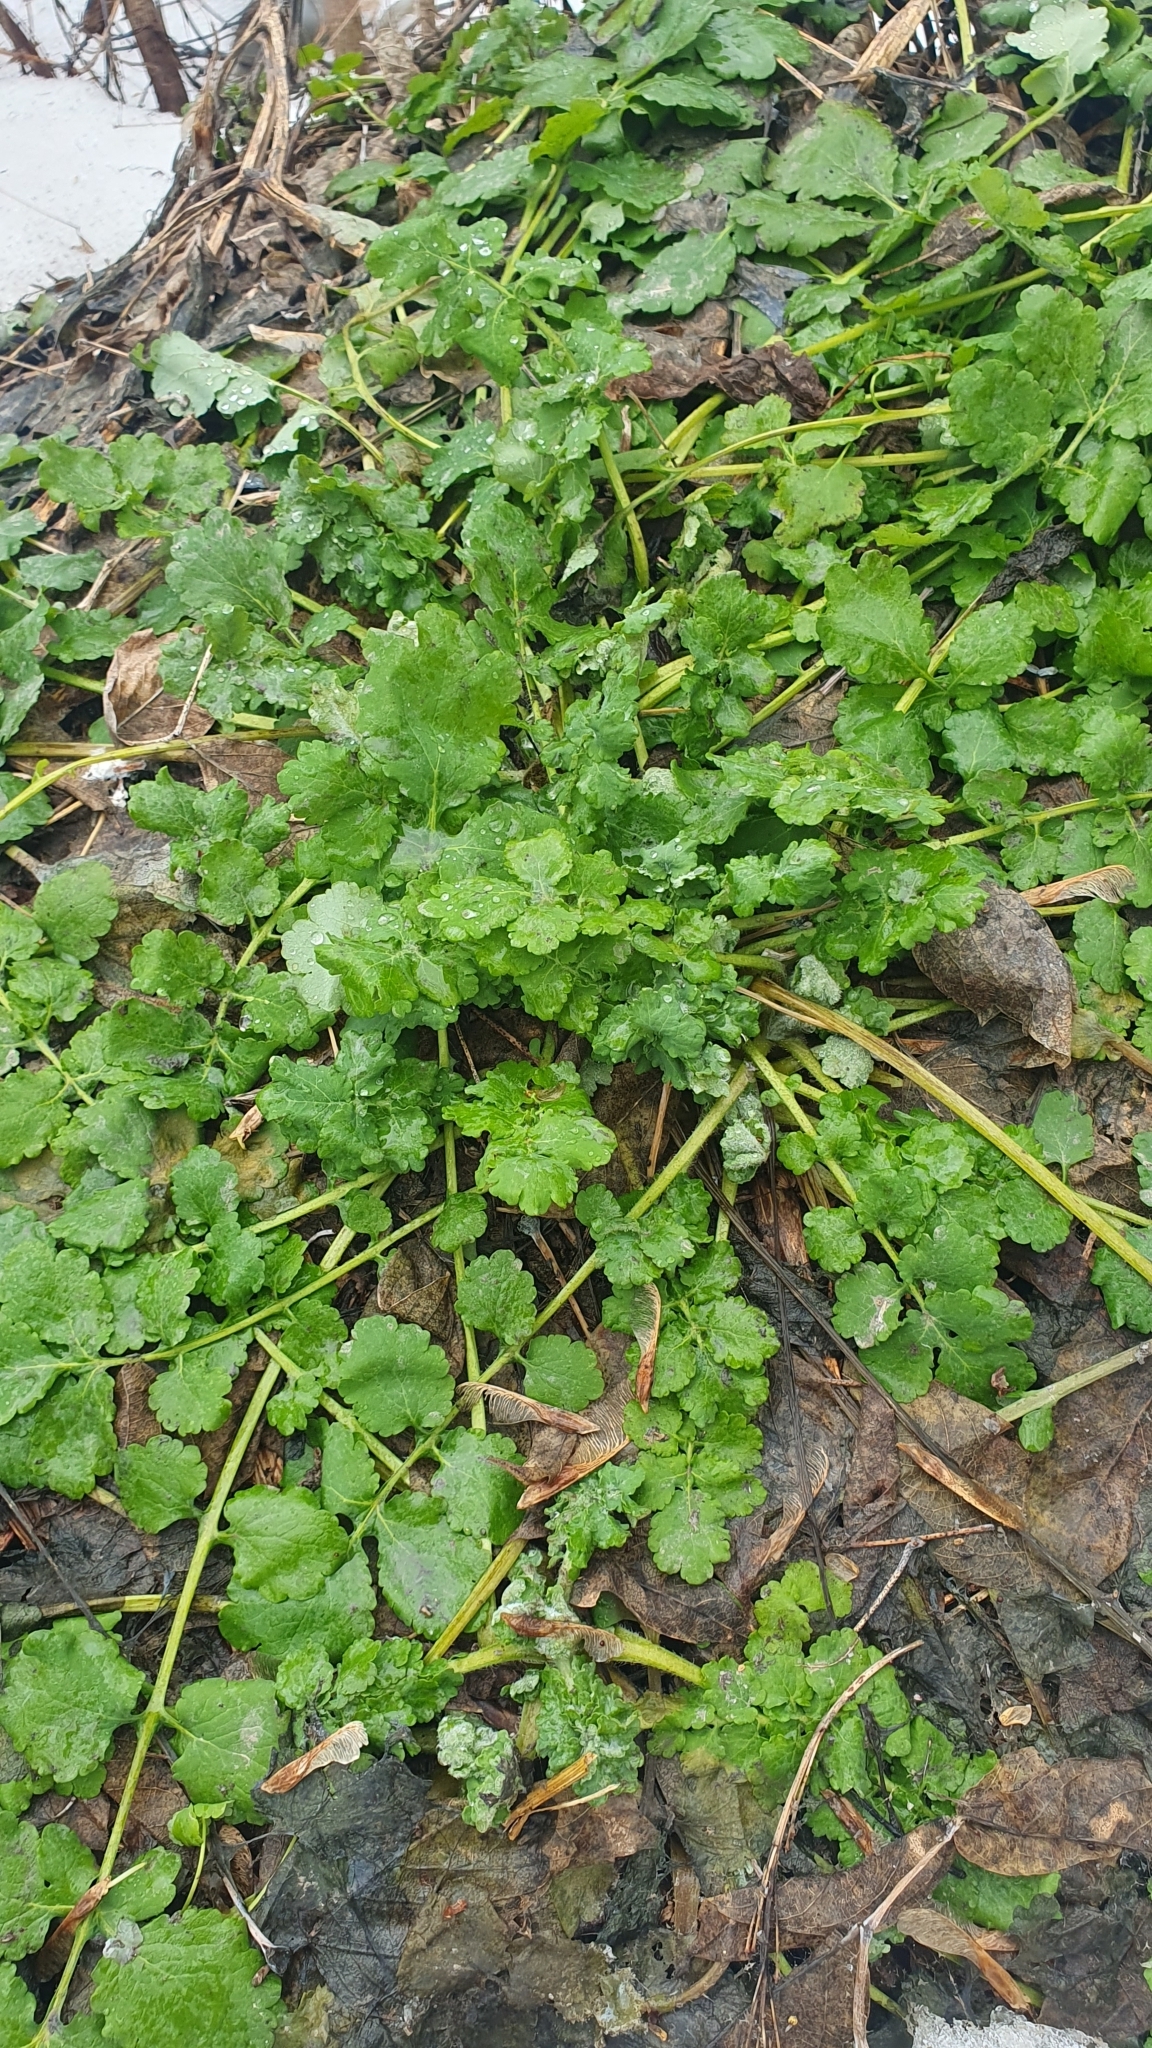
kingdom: Plantae
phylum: Tracheophyta
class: Magnoliopsida
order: Ranunculales
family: Papaveraceae
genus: Chelidonium
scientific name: Chelidonium majus
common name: Greater celandine
